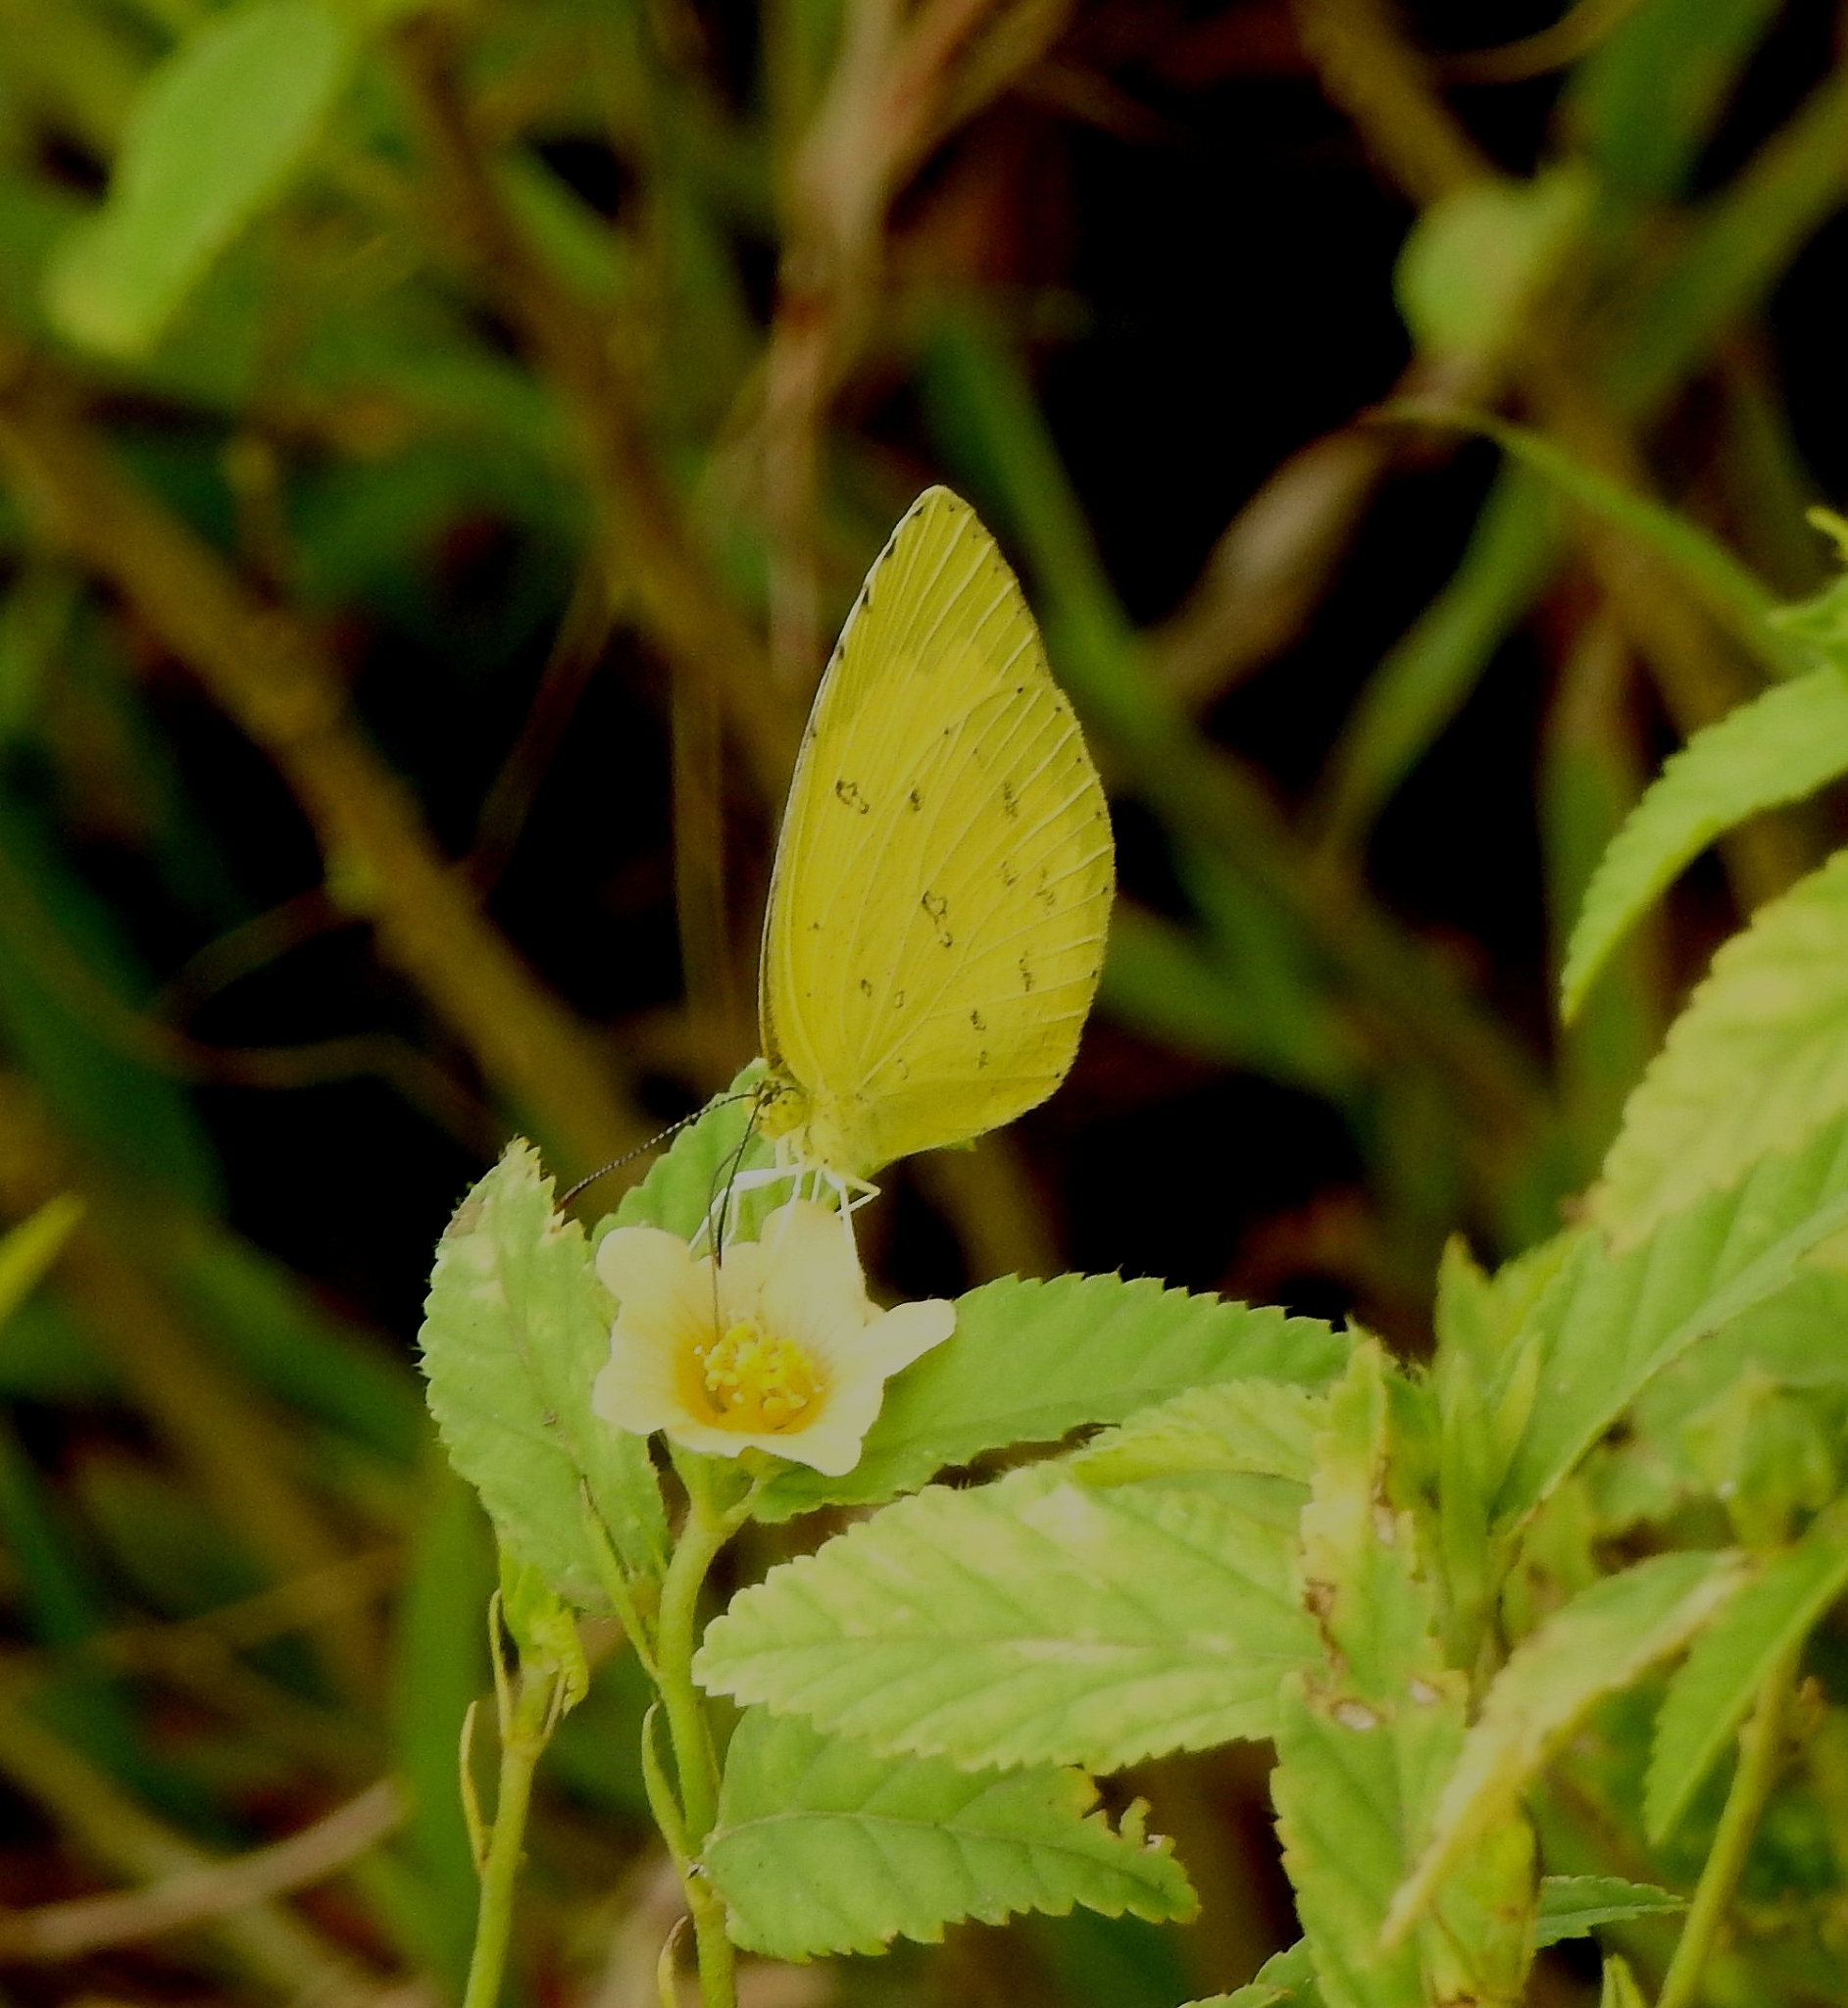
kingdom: Animalia
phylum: Arthropoda
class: Insecta
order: Lepidoptera
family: Pieridae
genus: Eurema
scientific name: Eurema hecabe
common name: Pale grass yellow
